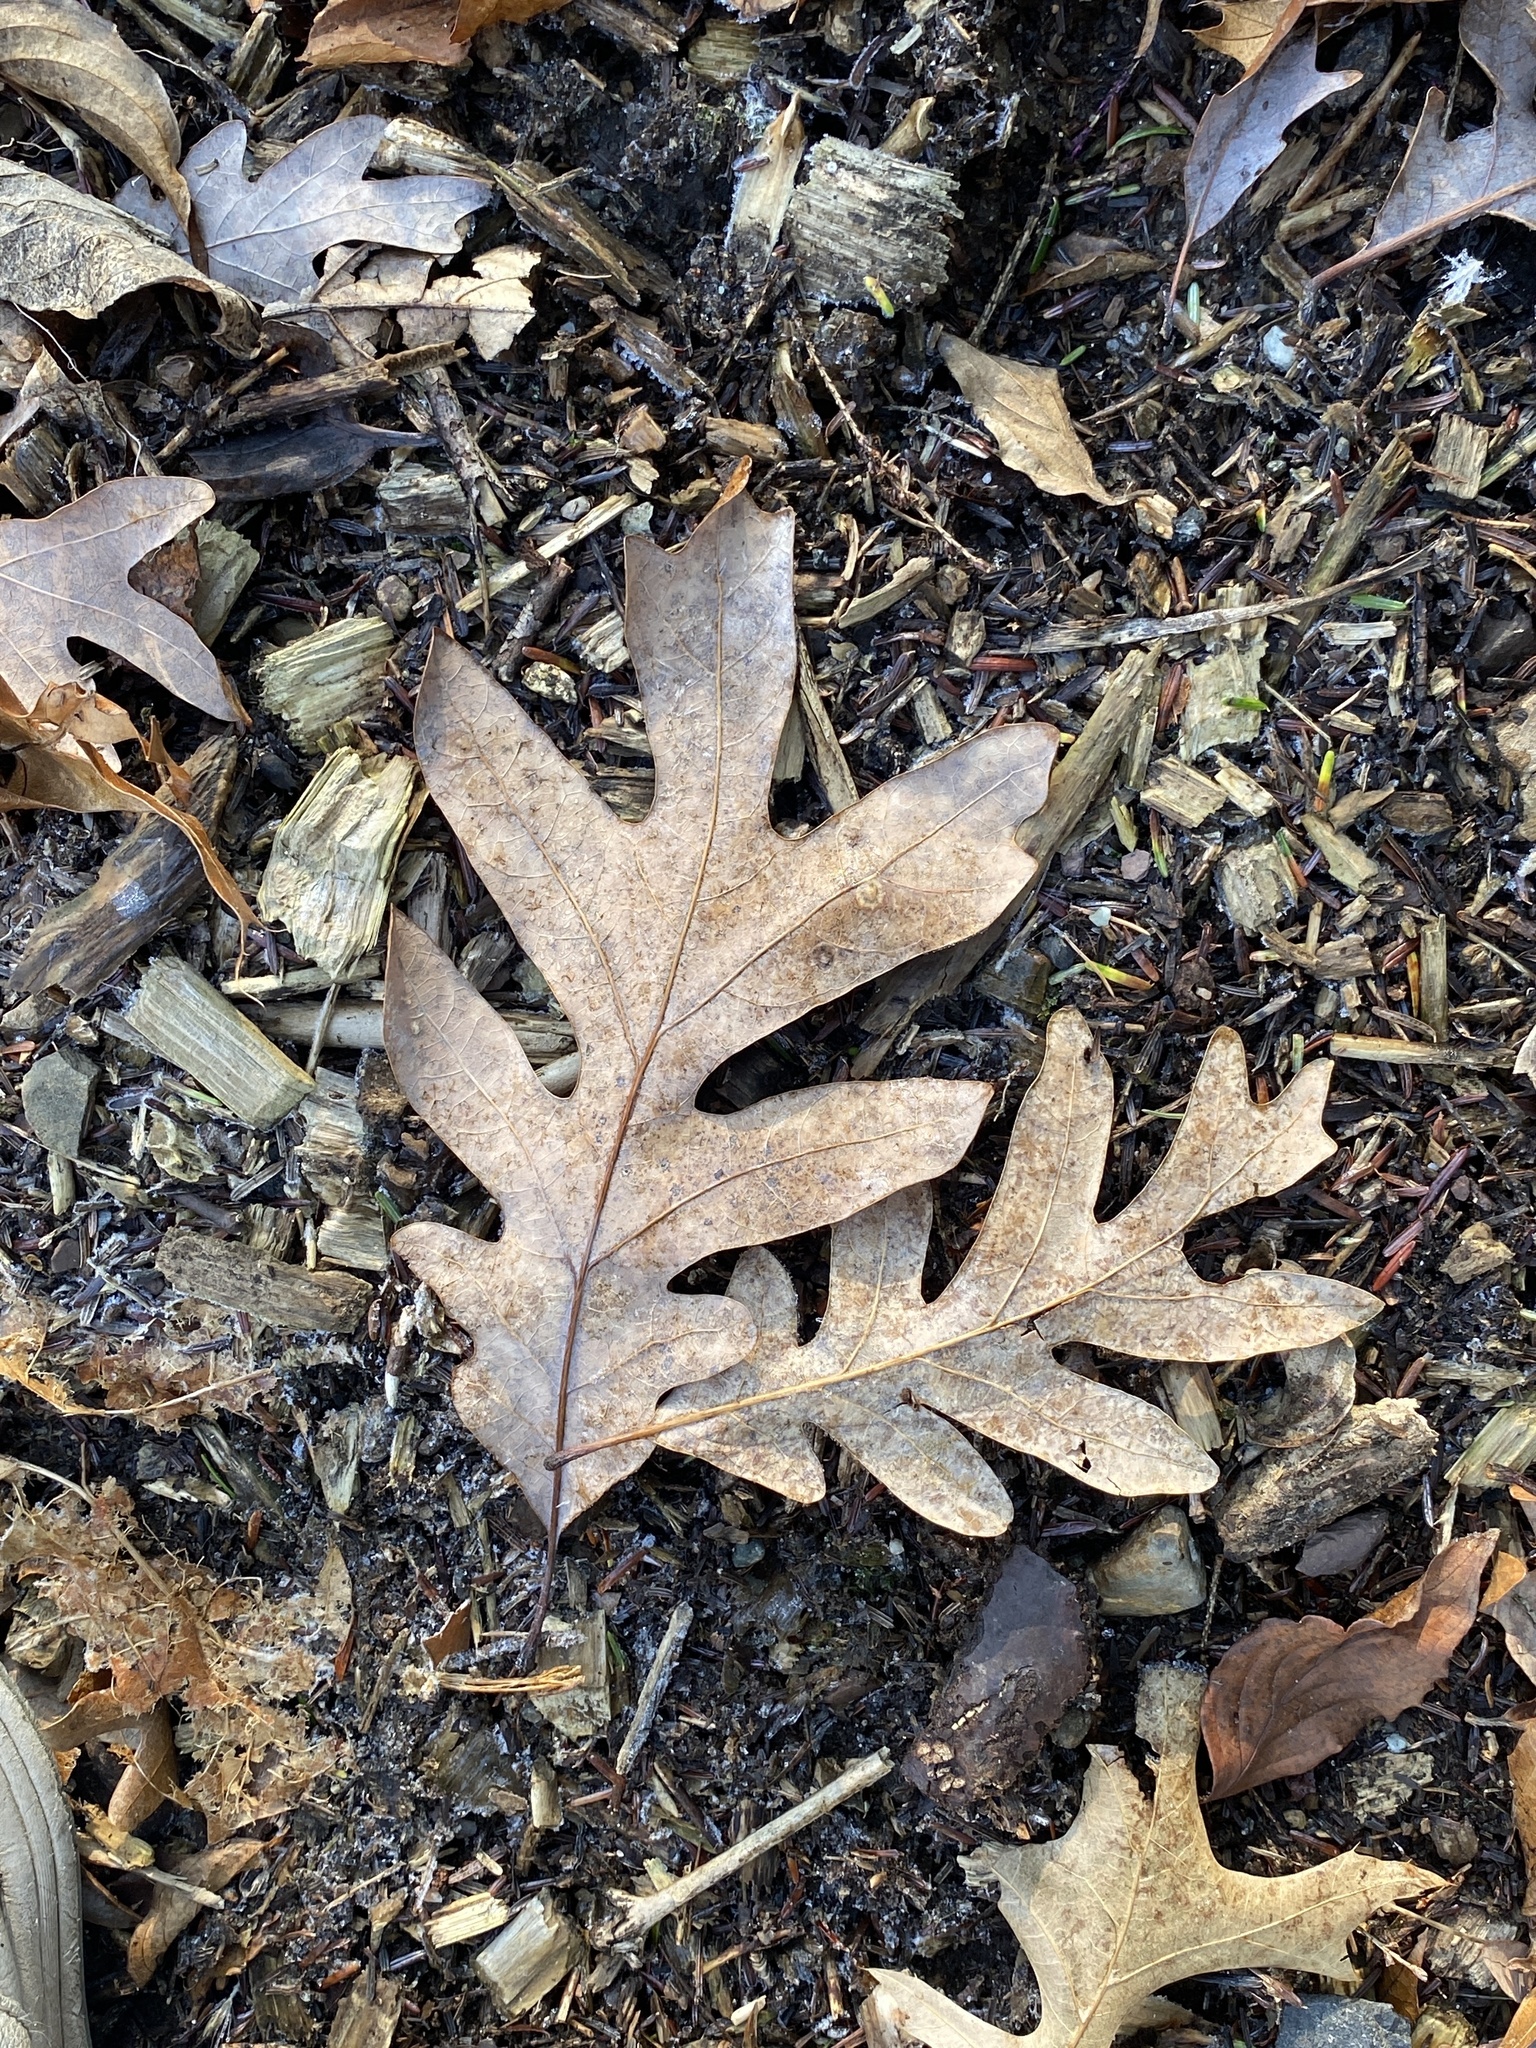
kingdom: Plantae
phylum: Tracheophyta
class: Magnoliopsida
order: Fagales
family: Fagaceae
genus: Quercus
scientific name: Quercus alba
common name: White oak
